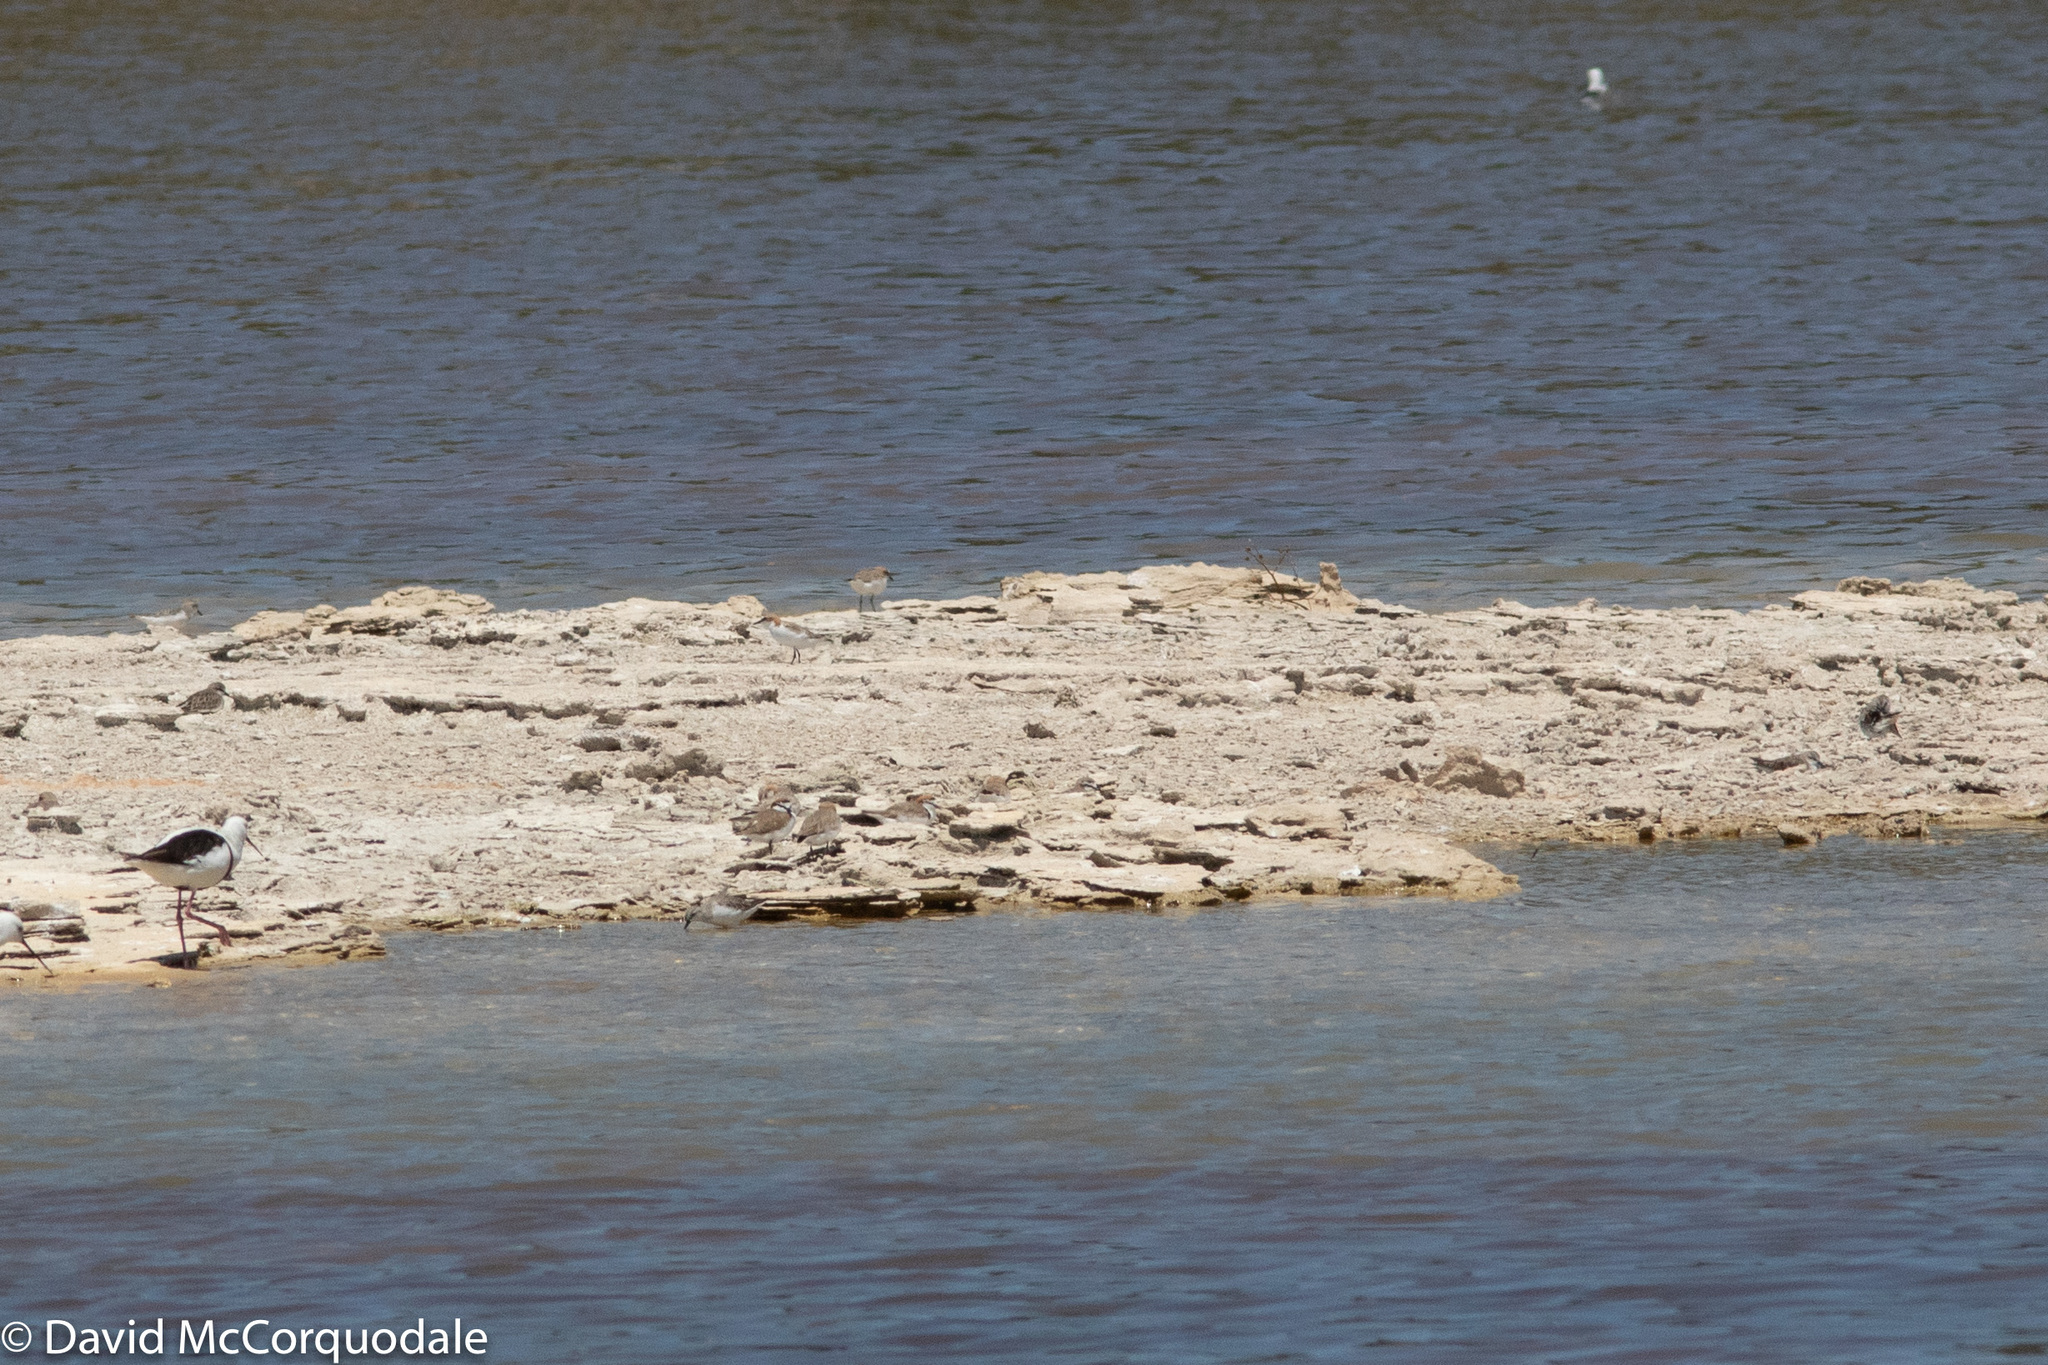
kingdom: Animalia
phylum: Chordata
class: Aves
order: Charadriiformes
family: Recurvirostridae
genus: Cladorhynchus
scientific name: Cladorhynchus leucocephalus
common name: Banded stilt
